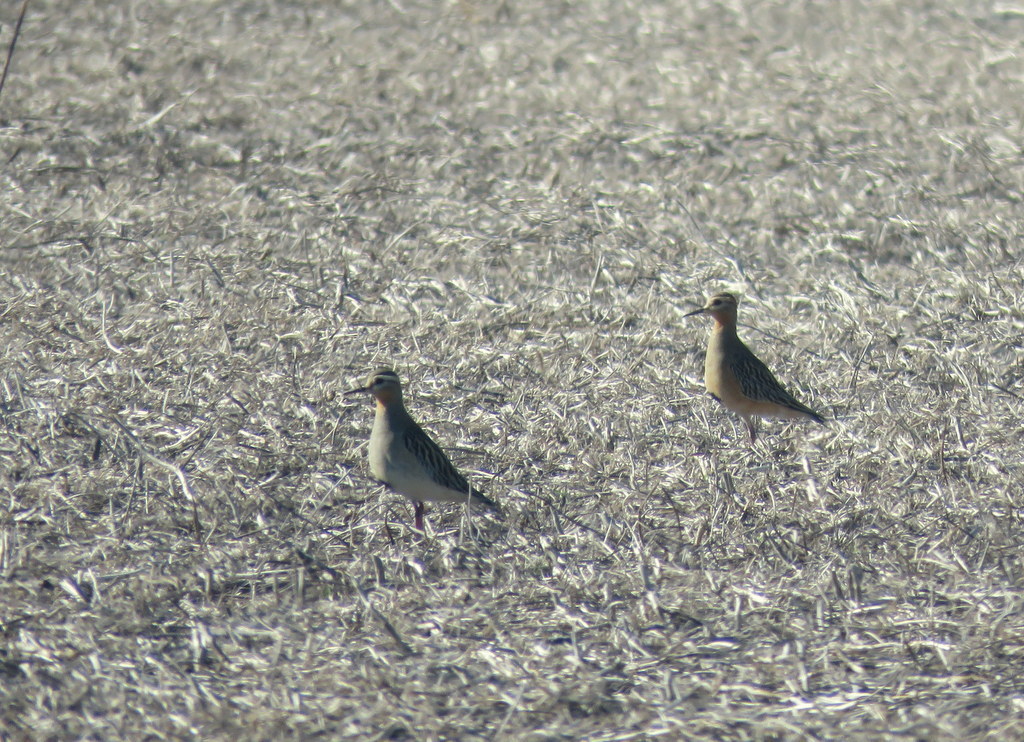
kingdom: Animalia
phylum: Chordata
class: Aves
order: Charadriiformes
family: Charadriidae
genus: Oreopholus
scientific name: Oreopholus ruficollis
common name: Tawny-throated dotterel
